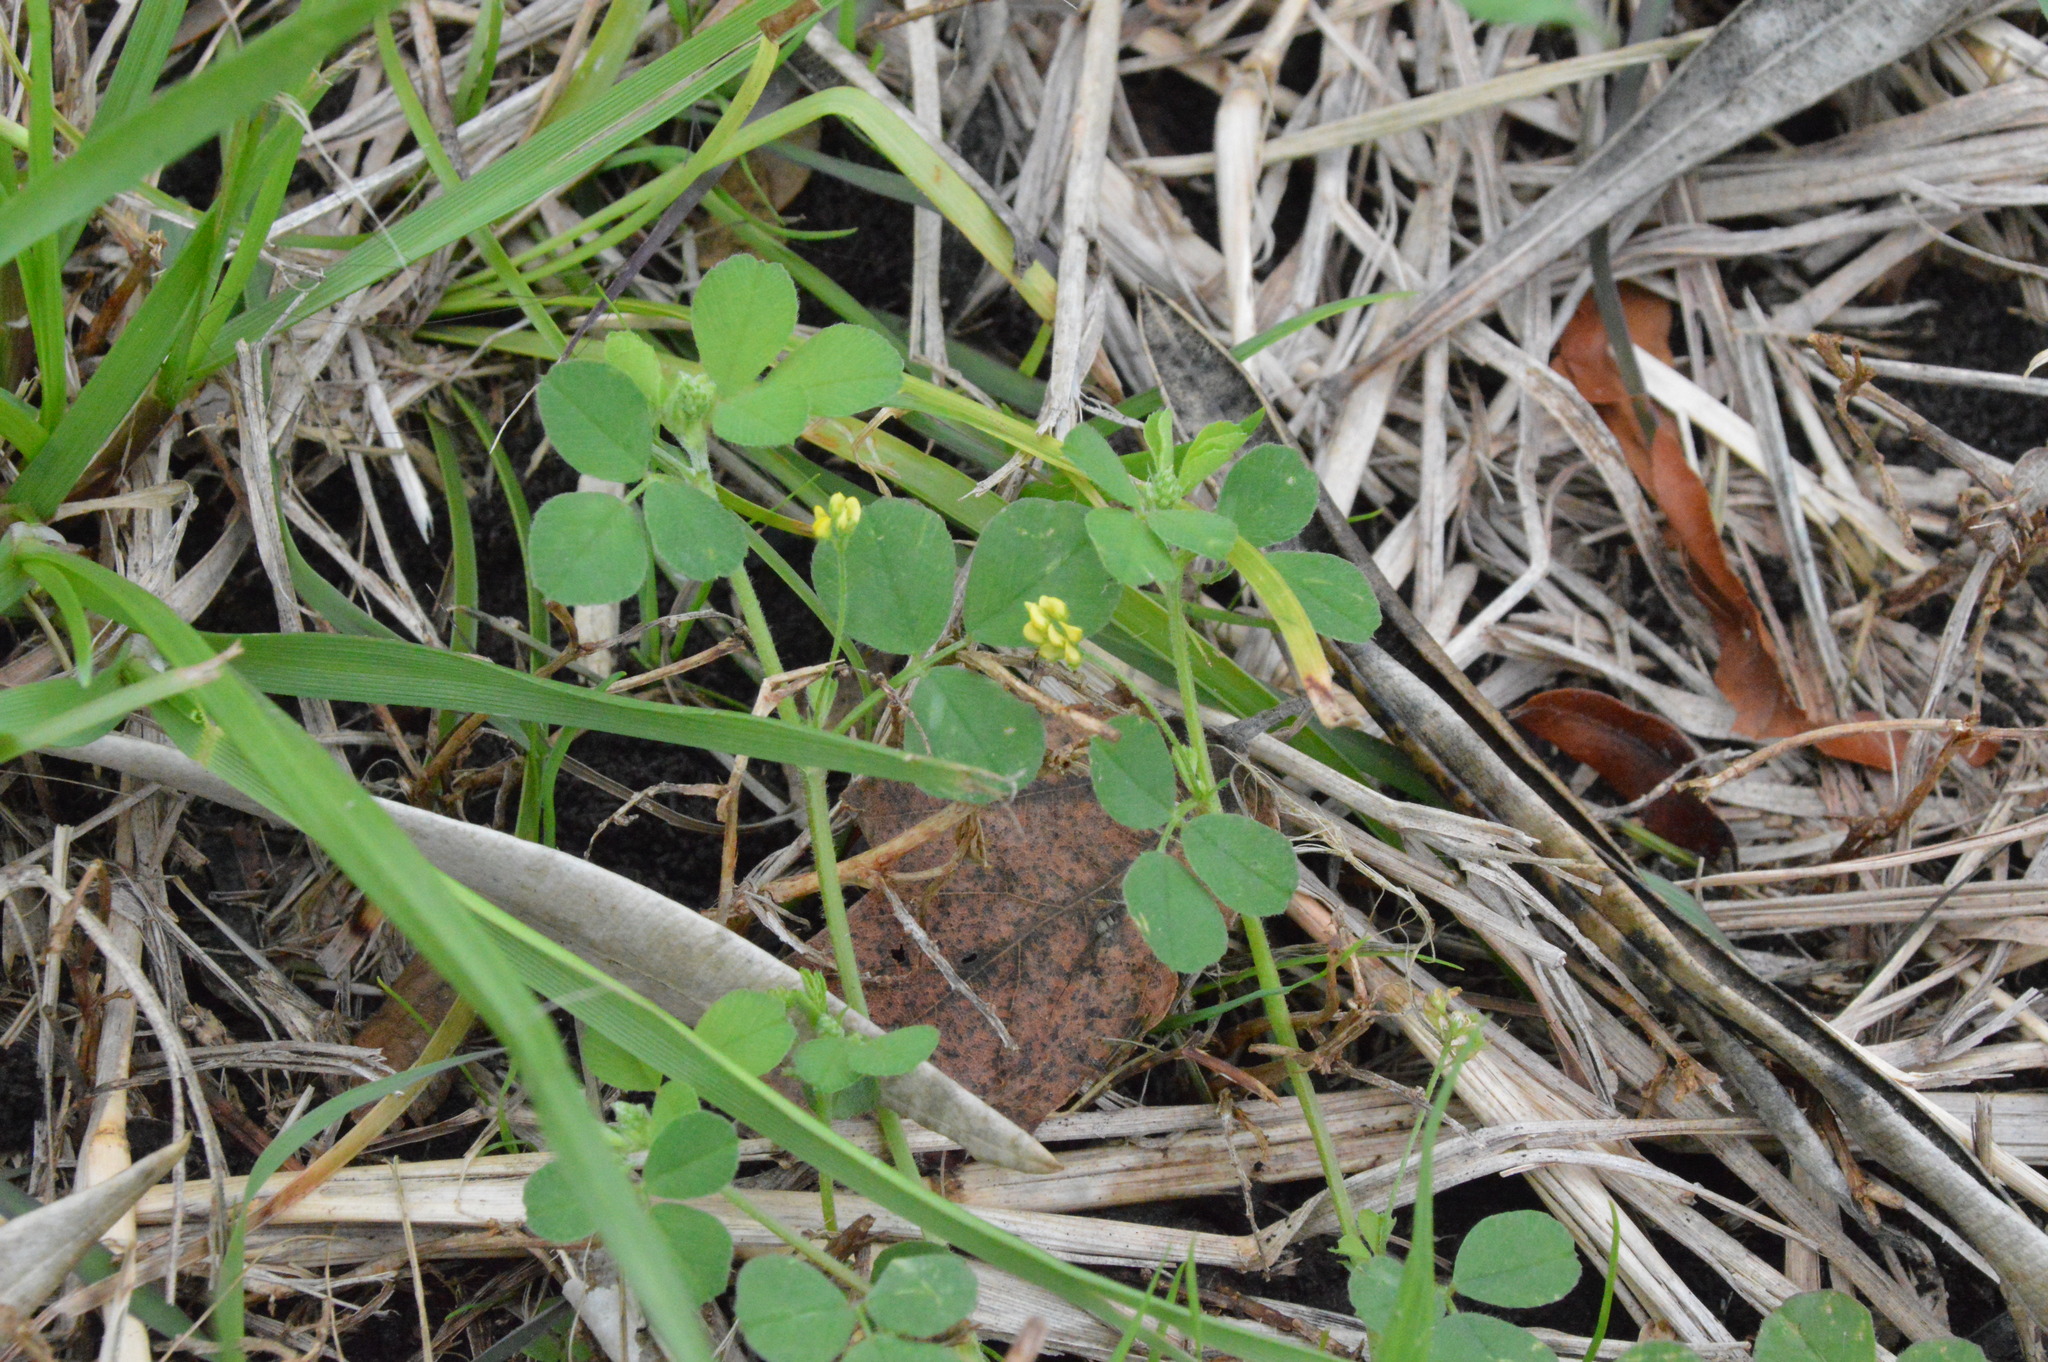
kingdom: Plantae
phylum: Tracheophyta
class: Magnoliopsida
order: Fabales
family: Fabaceae
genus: Medicago
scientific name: Medicago lupulina
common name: Black medick
